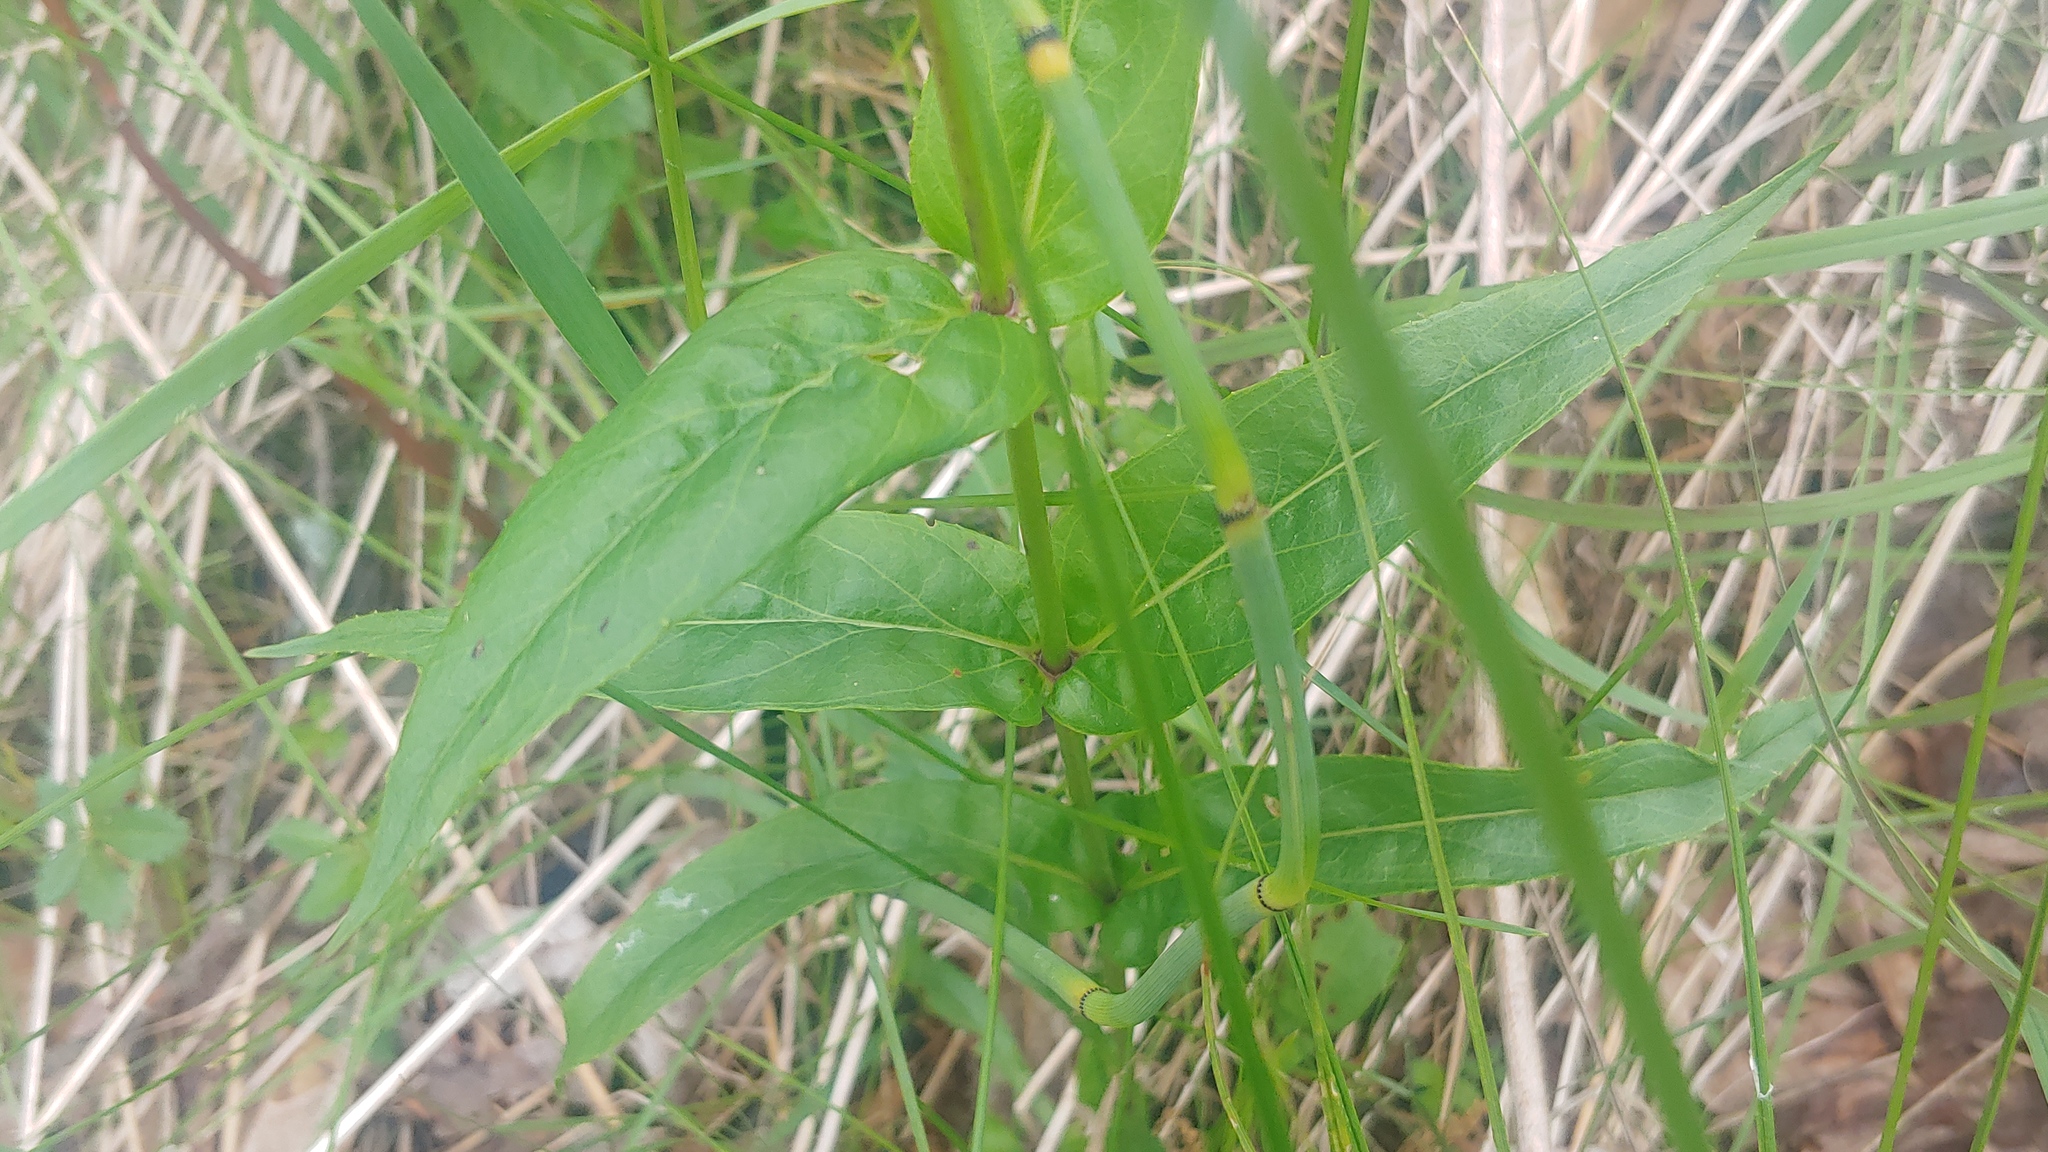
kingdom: Plantae
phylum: Tracheophyta
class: Magnoliopsida
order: Lamiales
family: Plantaginaceae
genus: Penstemon
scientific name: Penstemon digitalis
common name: Foxglove beardtongue
